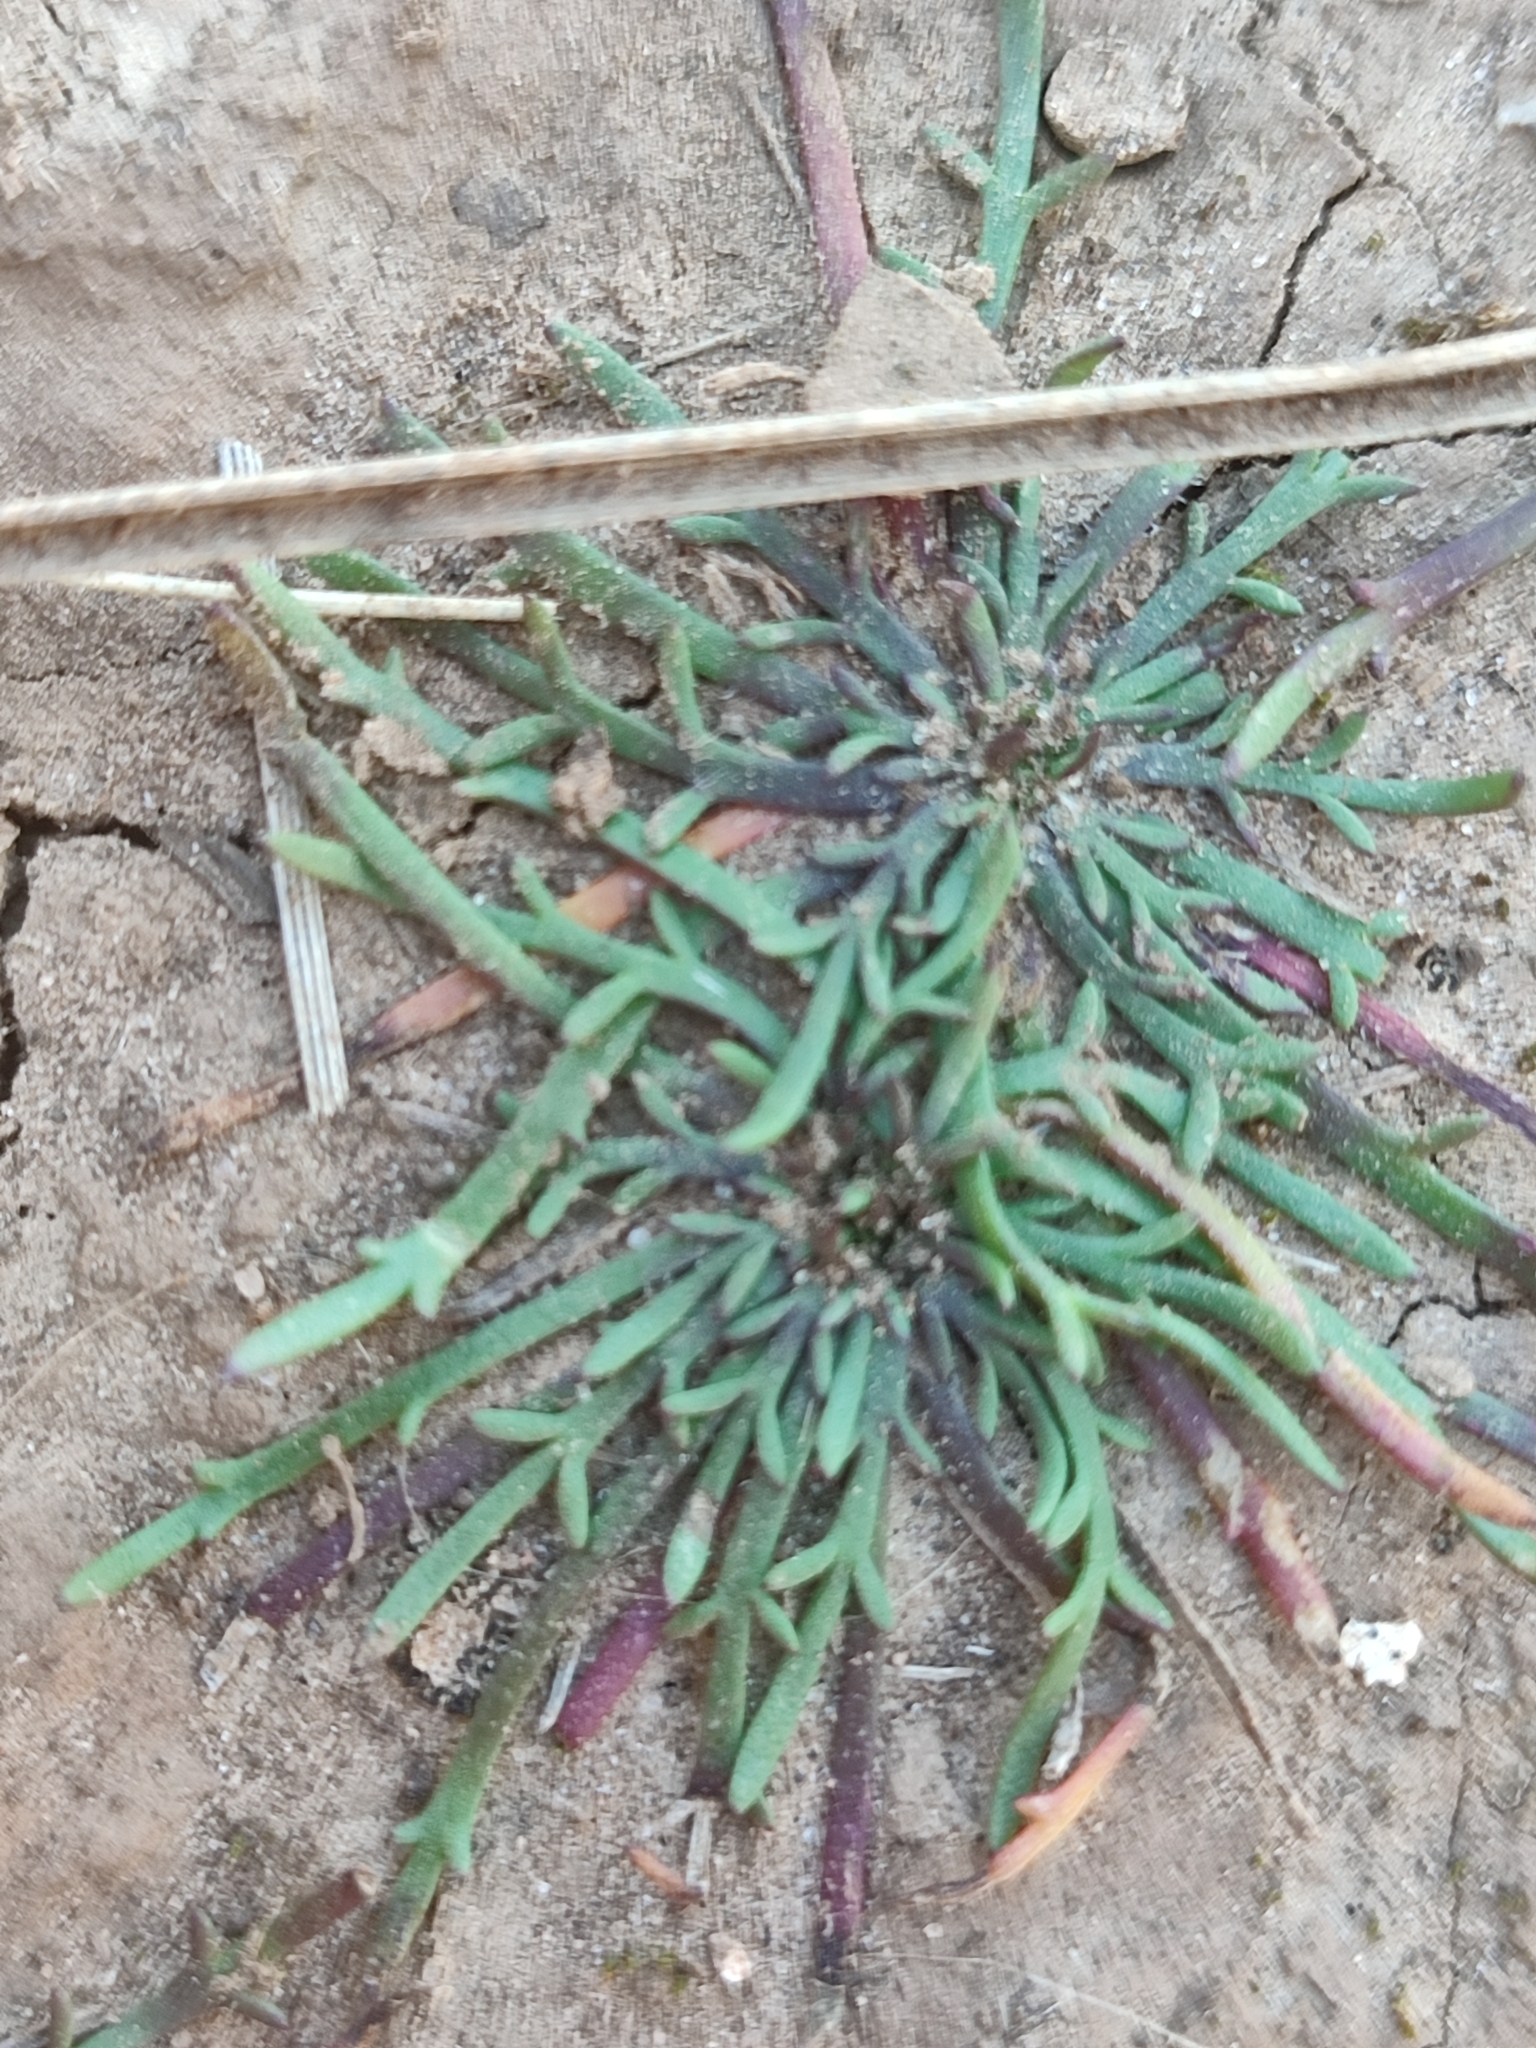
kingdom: Plantae
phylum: Tracheophyta
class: Magnoliopsida
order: Lamiales
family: Plantaginaceae
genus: Plantago
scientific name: Plantago coronopus
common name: Buck's-horn plantain
